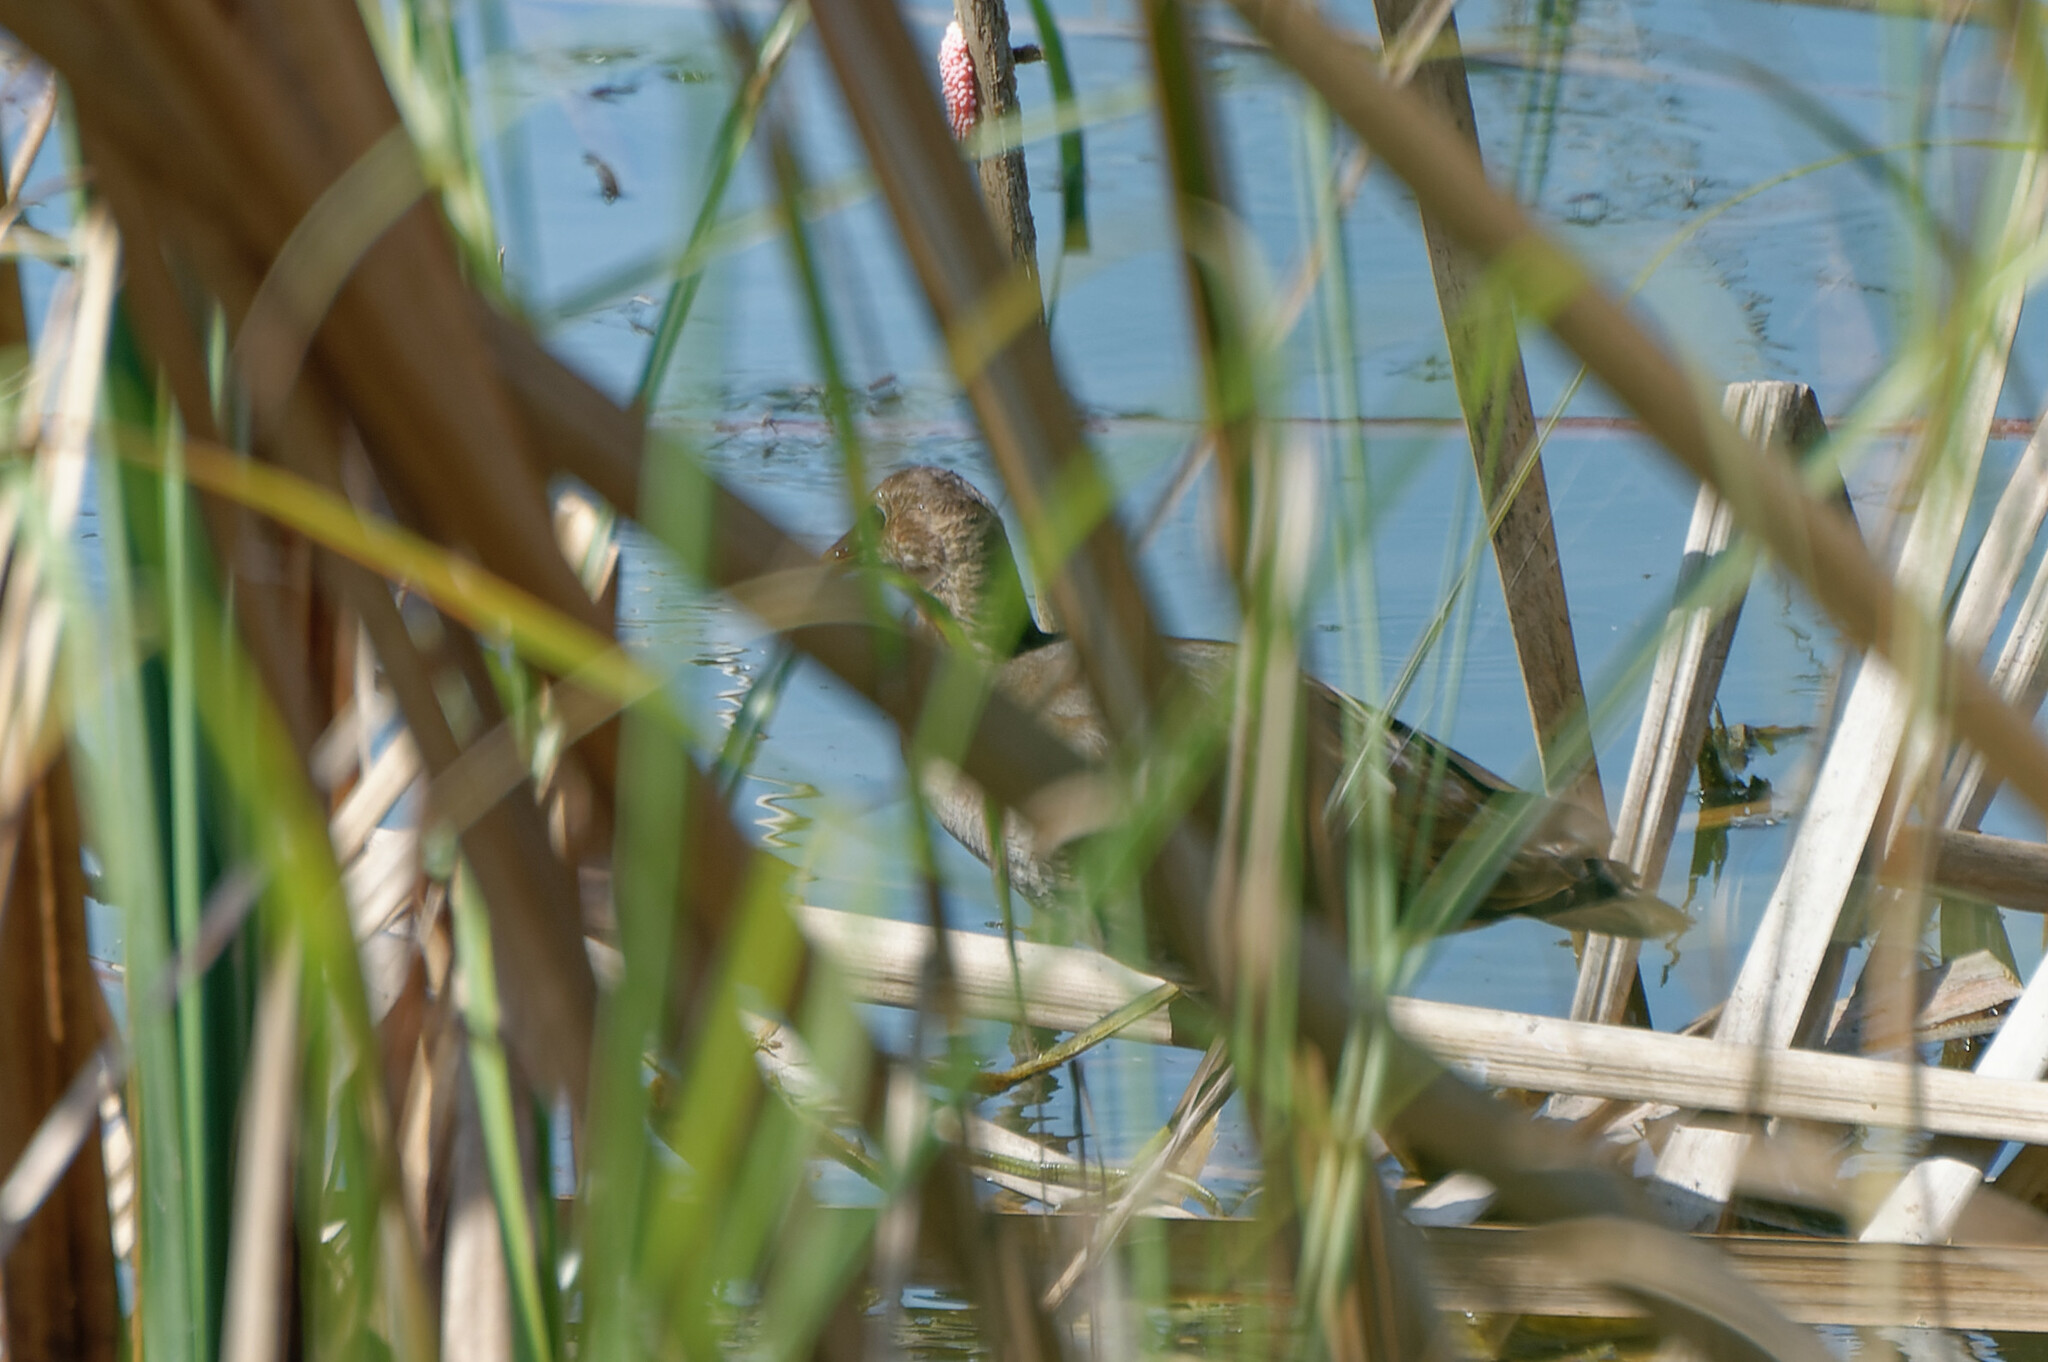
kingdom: Animalia
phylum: Chordata
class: Aves
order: Gruiformes
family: Rallidae
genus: Gallinula
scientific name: Gallinula chloropus
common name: Common moorhen
